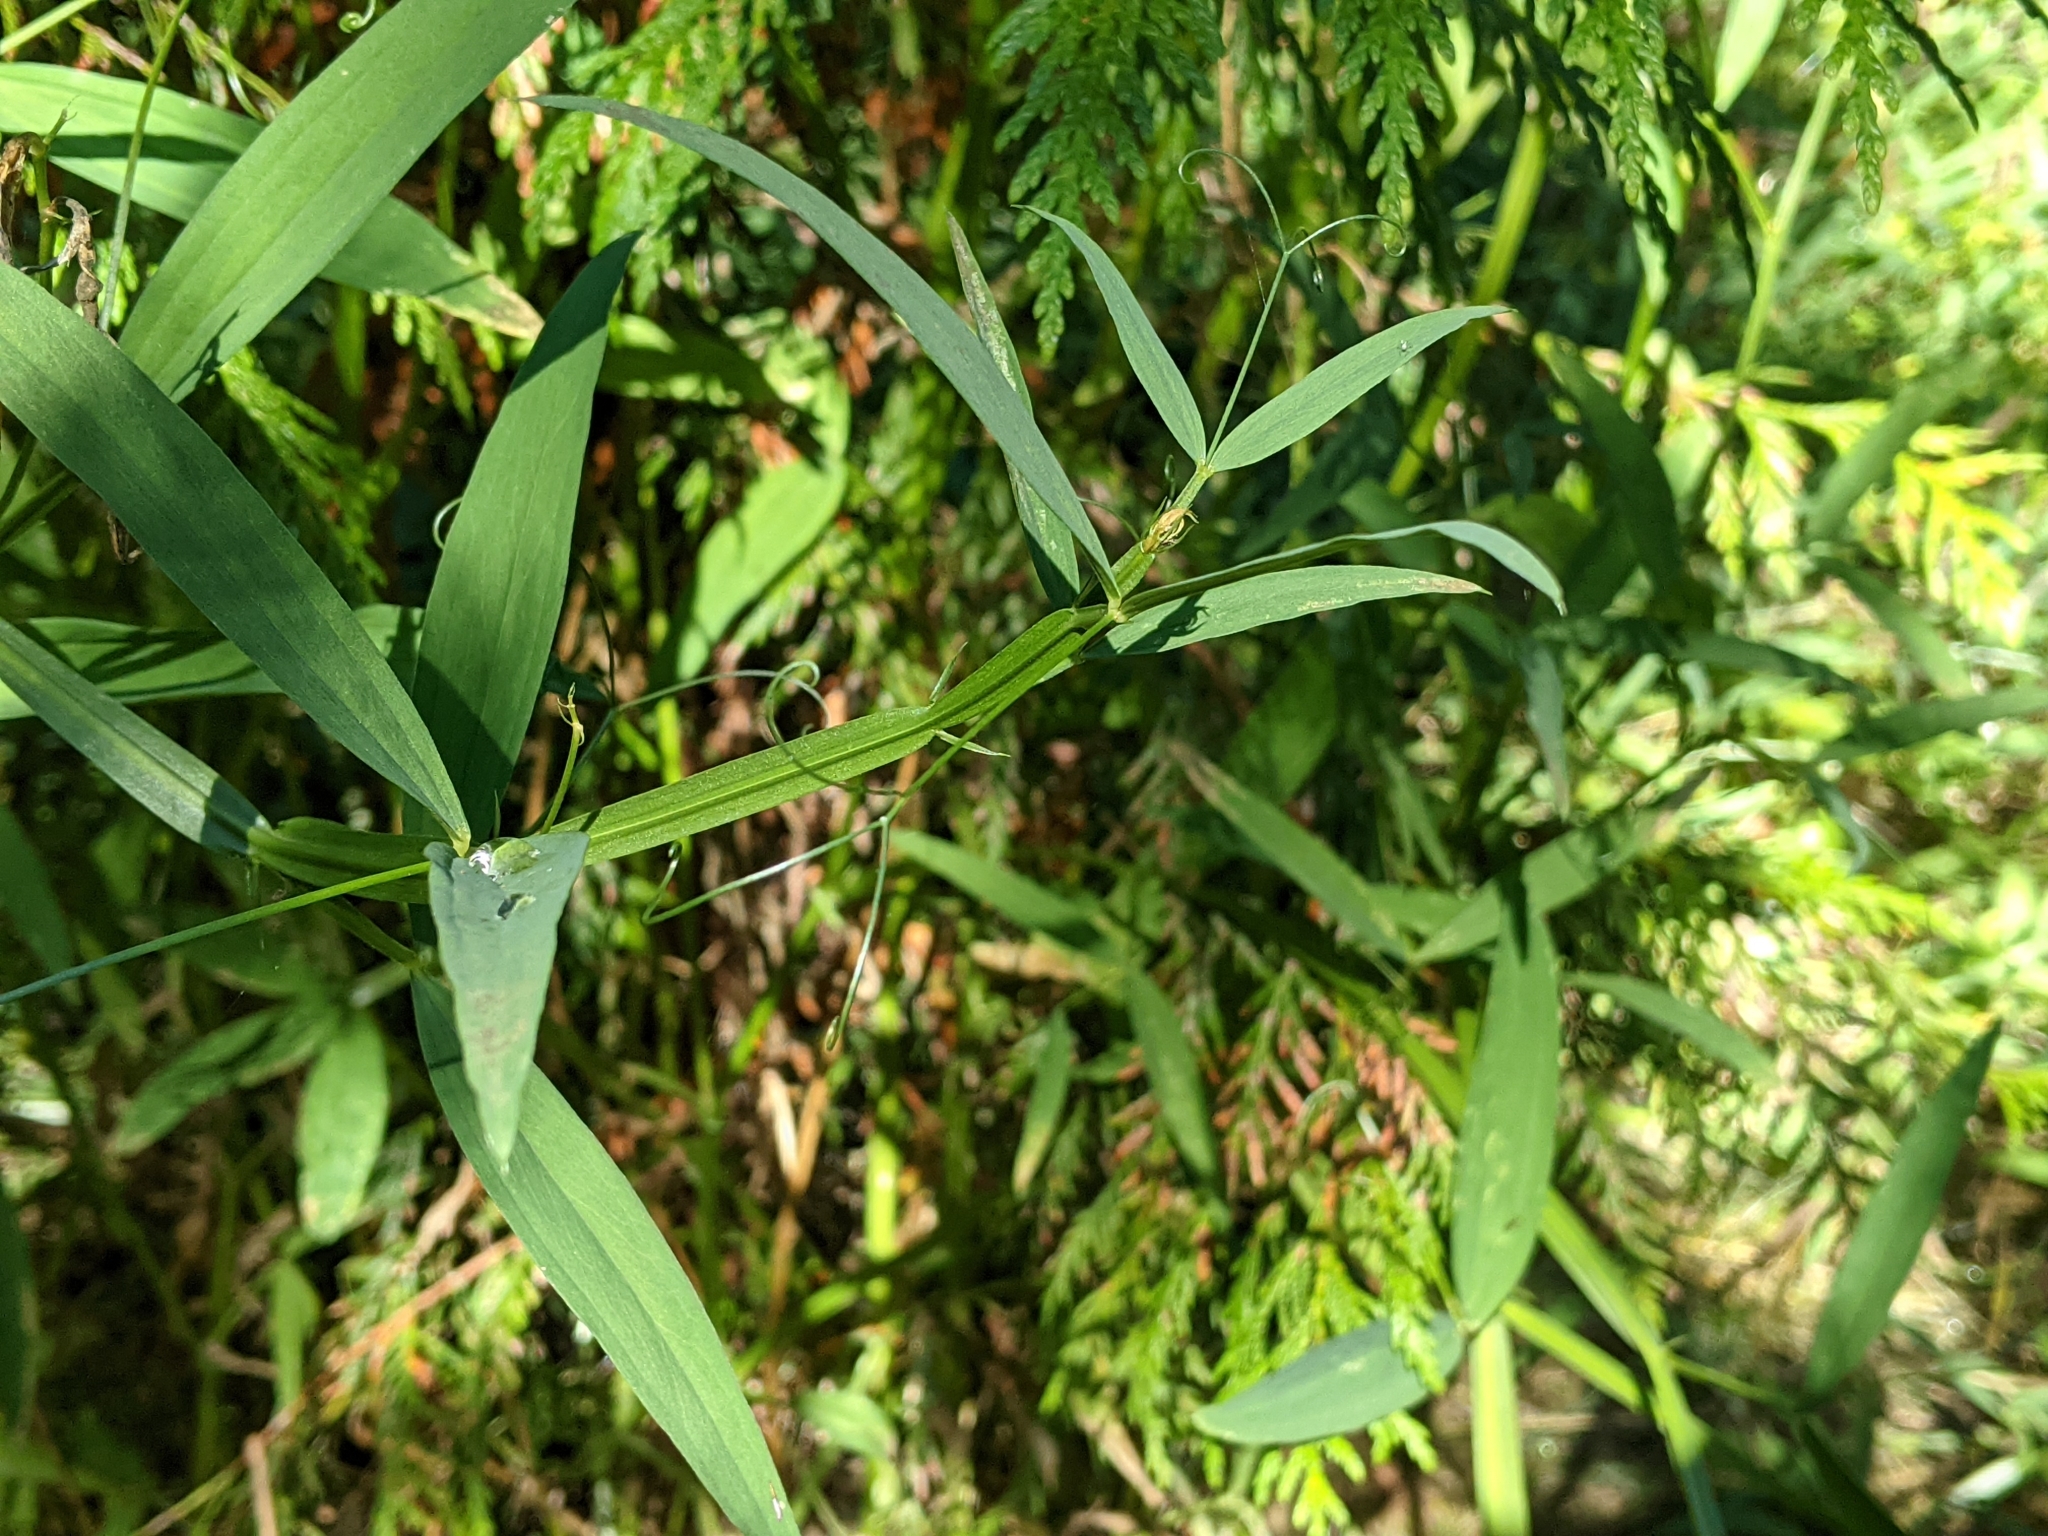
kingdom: Plantae
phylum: Tracheophyta
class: Magnoliopsida
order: Fabales
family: Fabaceae
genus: Lathyrus
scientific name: Lathyrus sylvestris
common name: Flat pea
